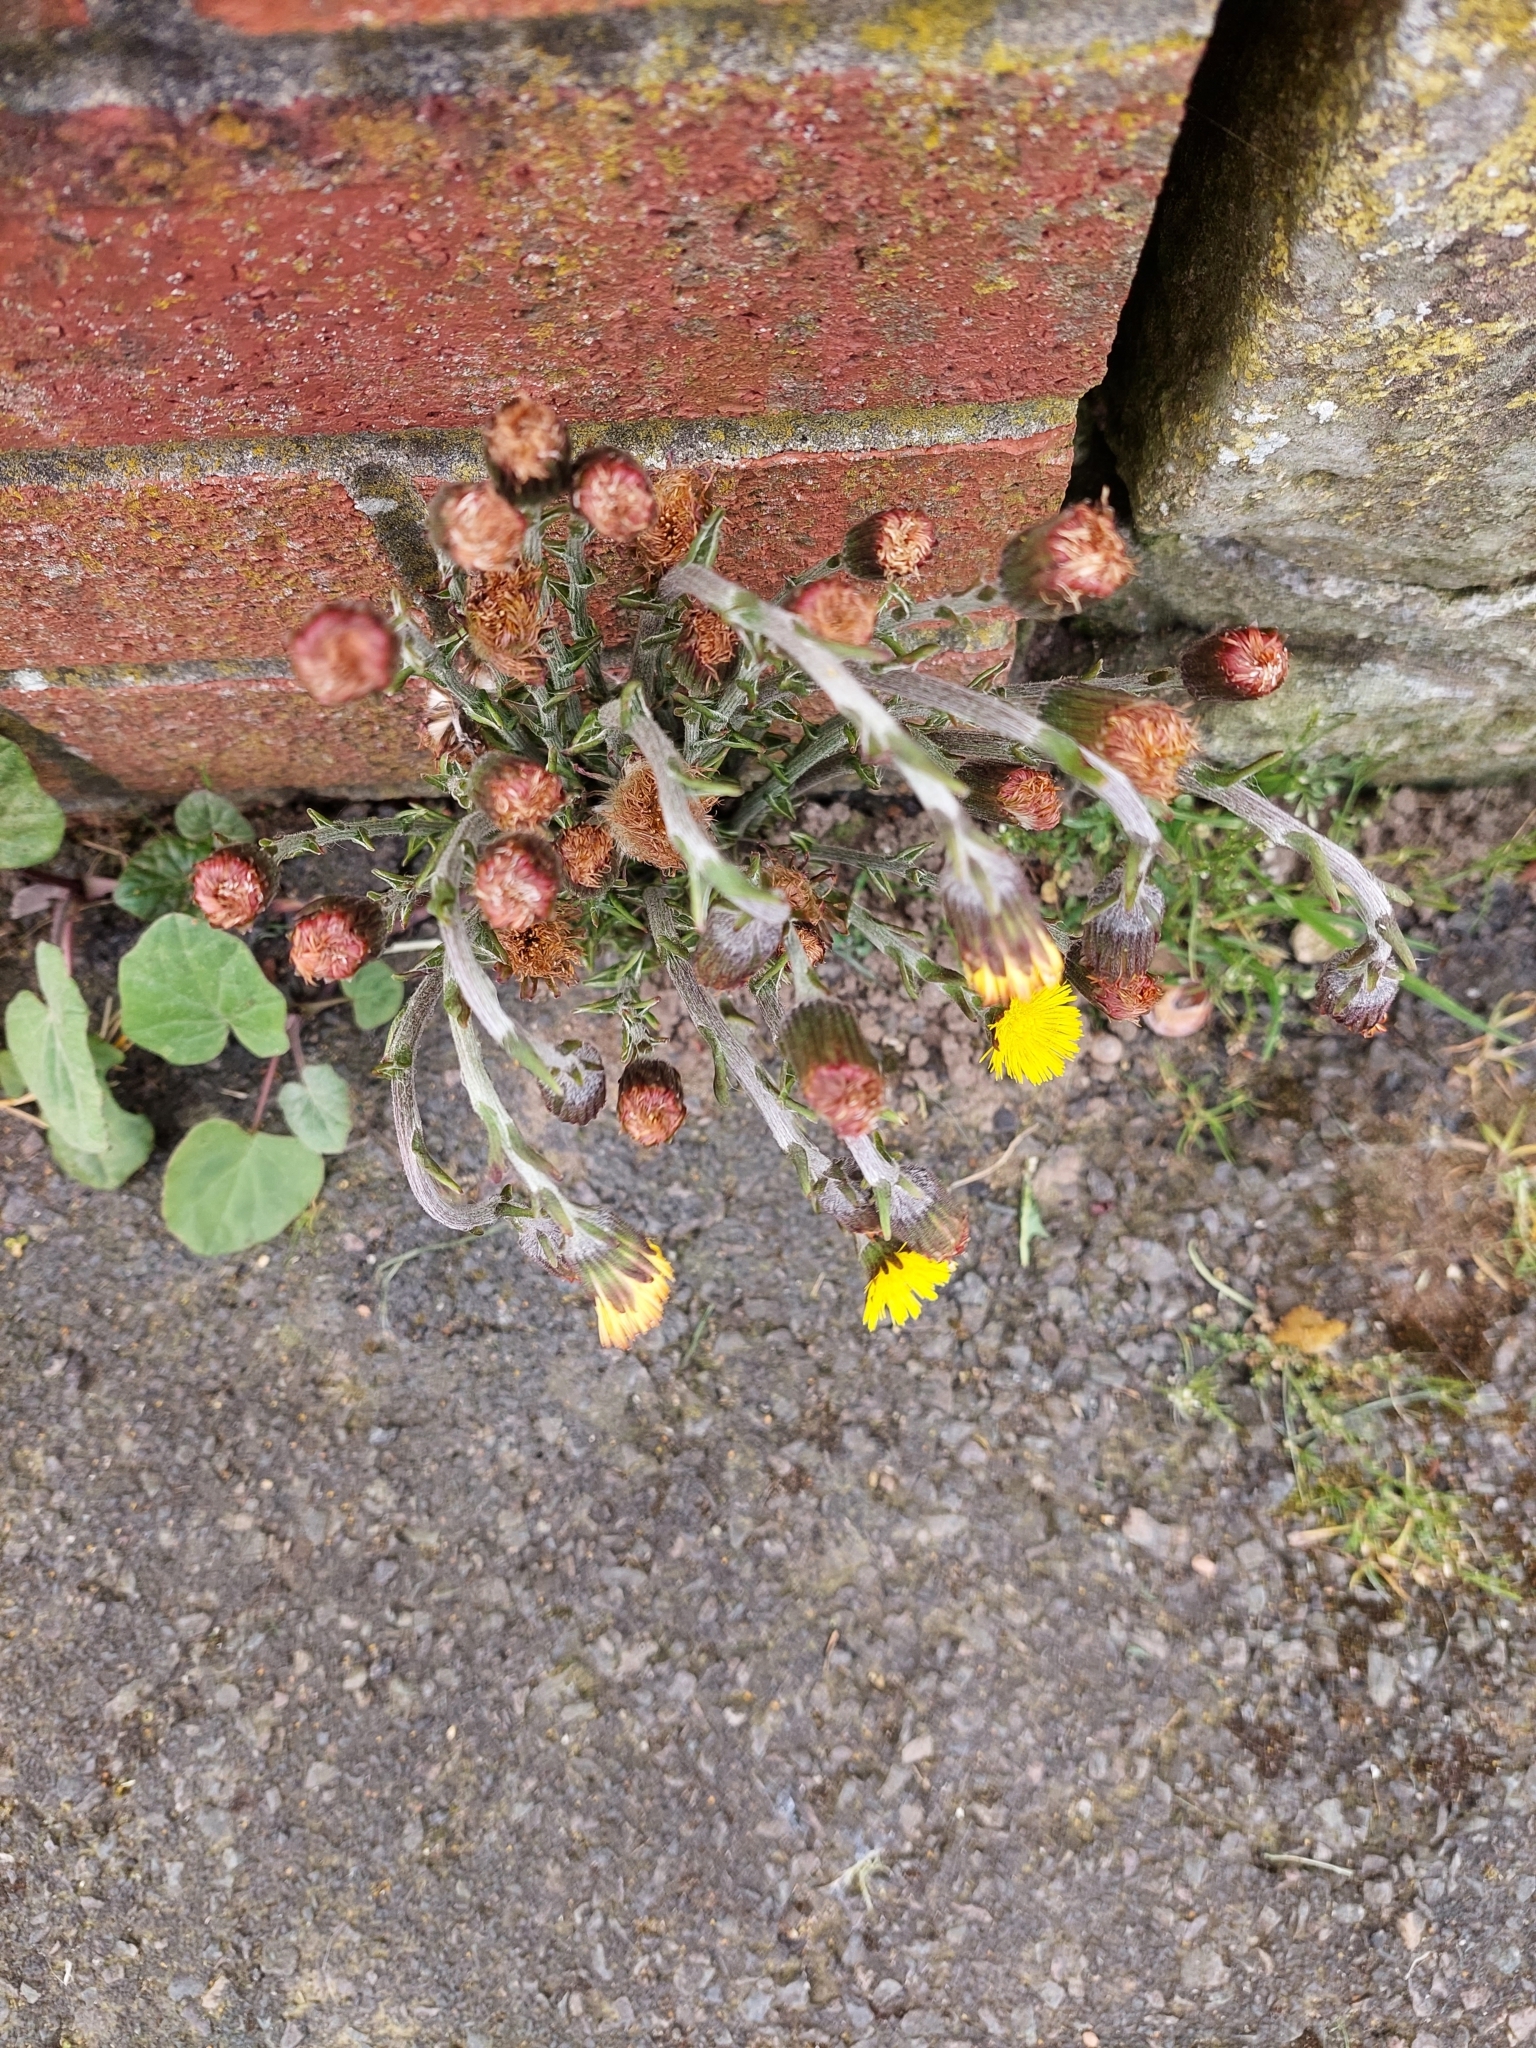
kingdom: Plantae
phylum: Tracheophyta
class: Magnoliopsida
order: Asterales
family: Asteraceae
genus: Tussilago
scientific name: Tussilago farfara
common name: Coltsfoot
